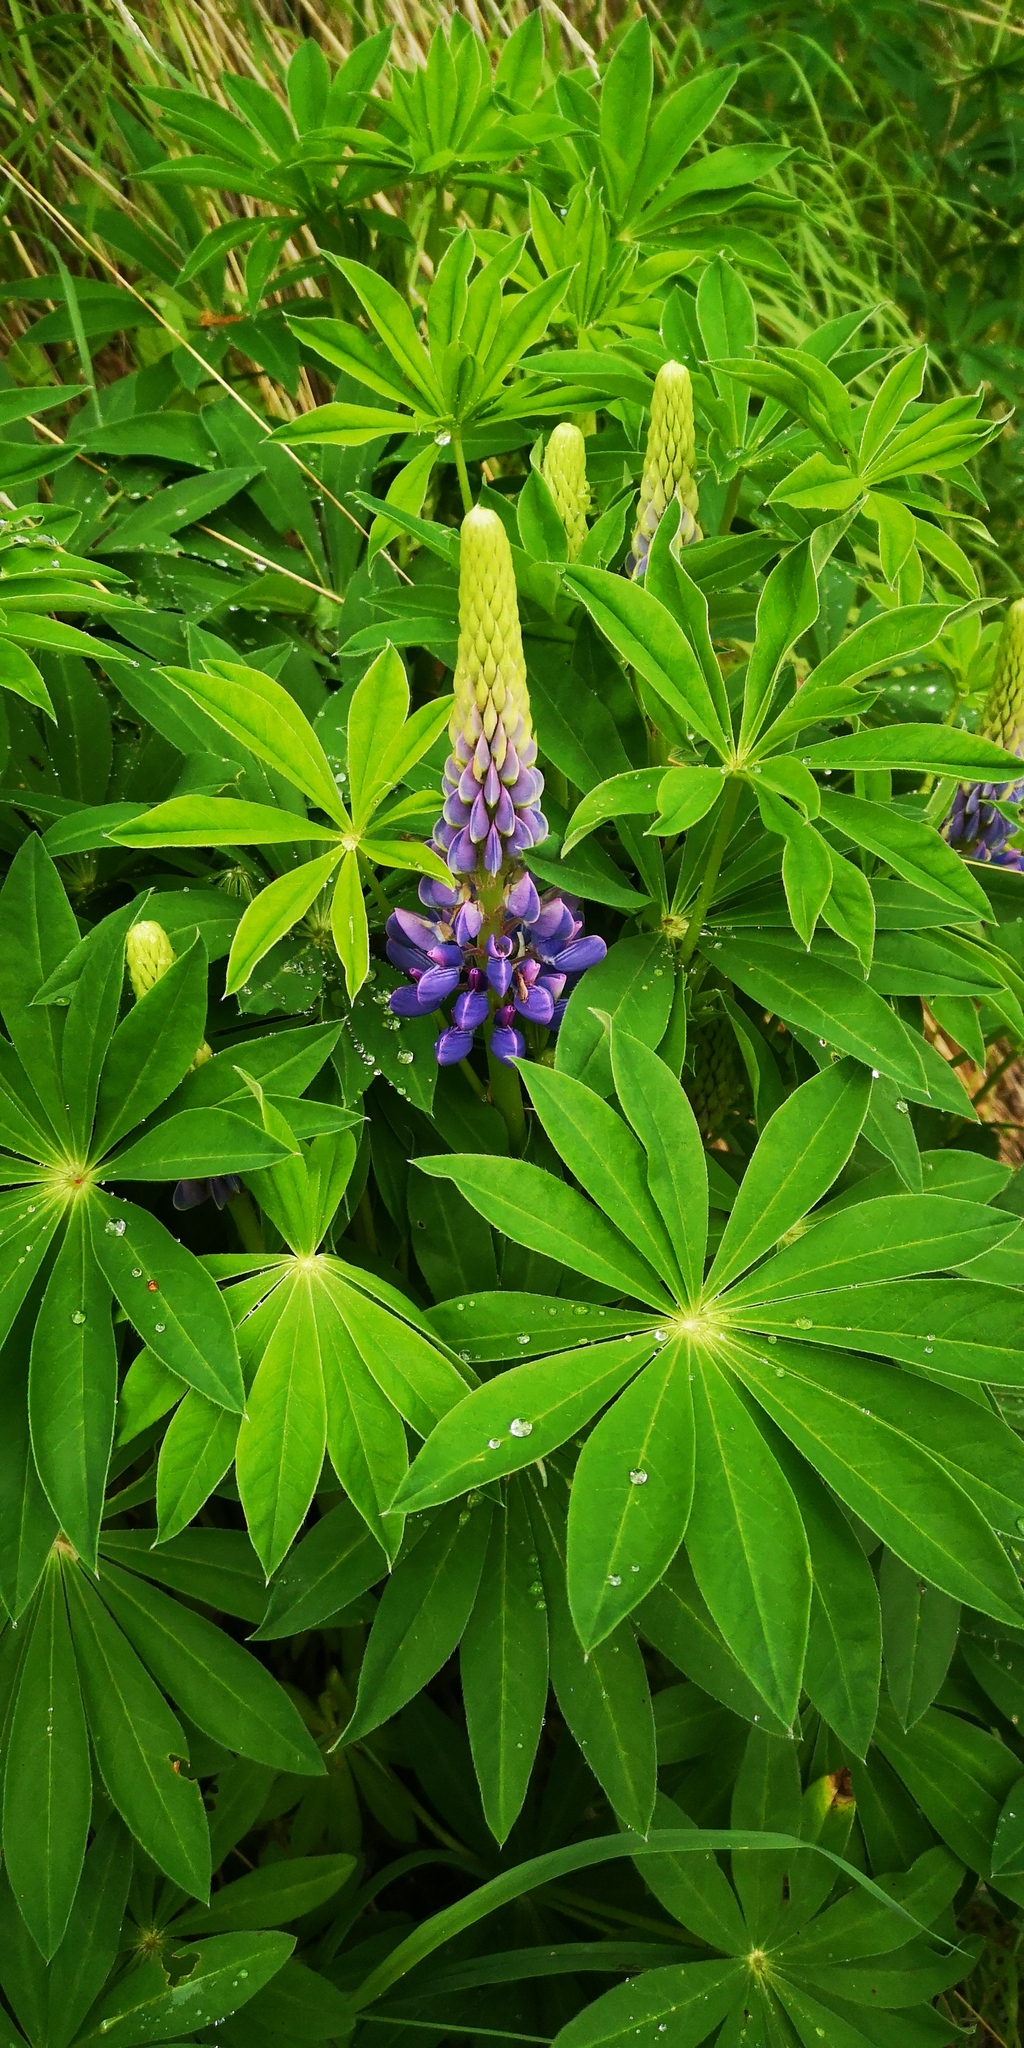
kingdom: Plantae
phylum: Tracheophyta
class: Magnoliopsida
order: Fabales
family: Fabaceae
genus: Lupinus
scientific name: Lupinus polyphyllus
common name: Garden lupin
